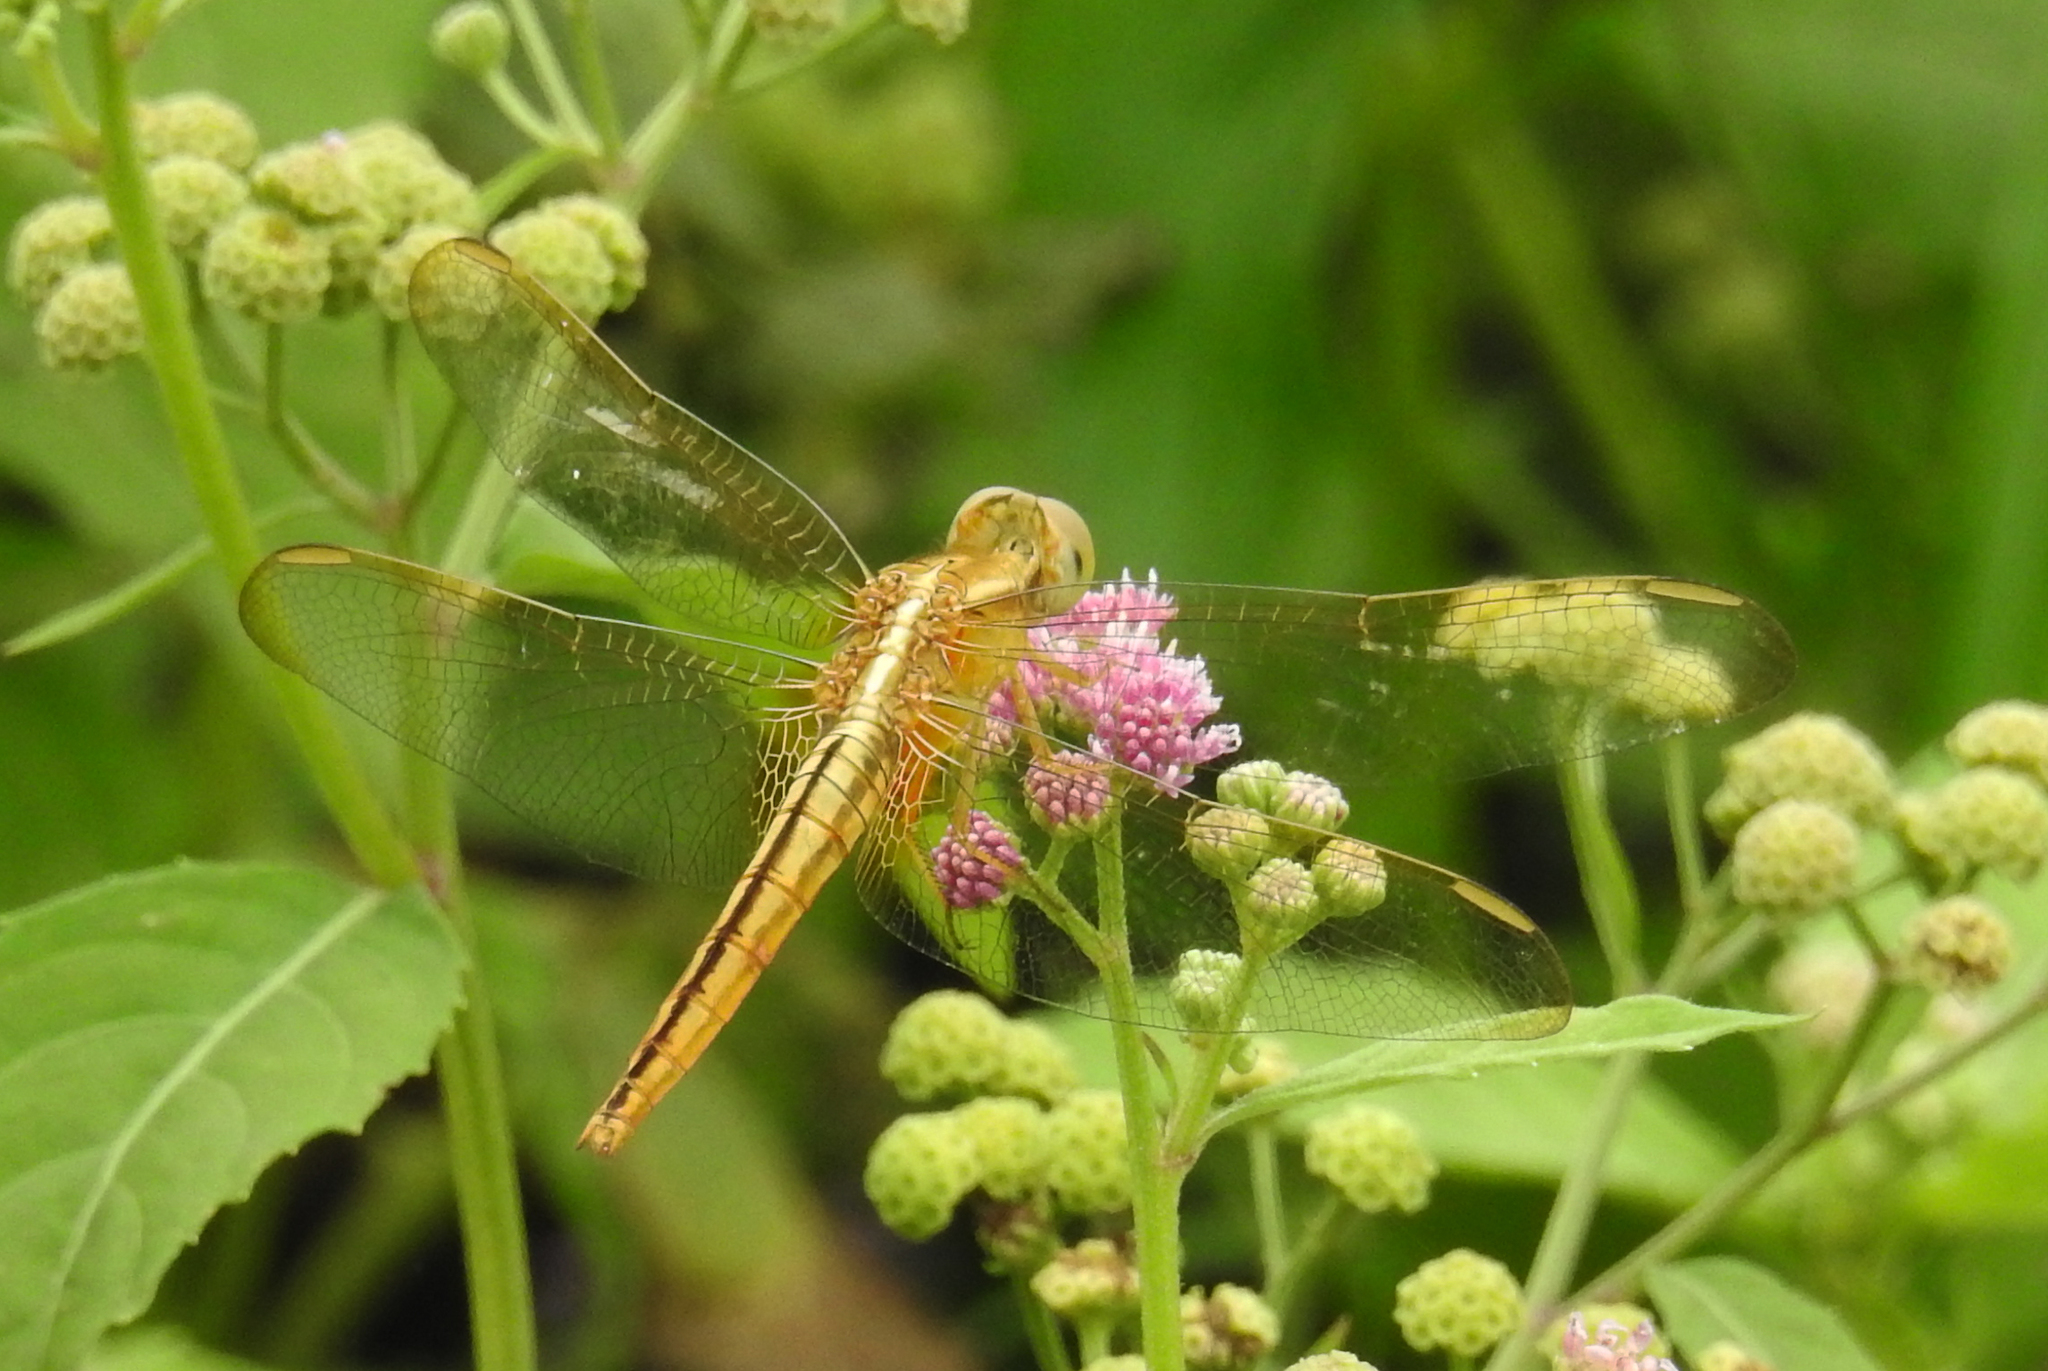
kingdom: Animalia
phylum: Arthropoda
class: Insecta
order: Odonata
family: Libellulidae
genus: Crocothemis
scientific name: Crocothemis servilia
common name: Scarlet skimmer
